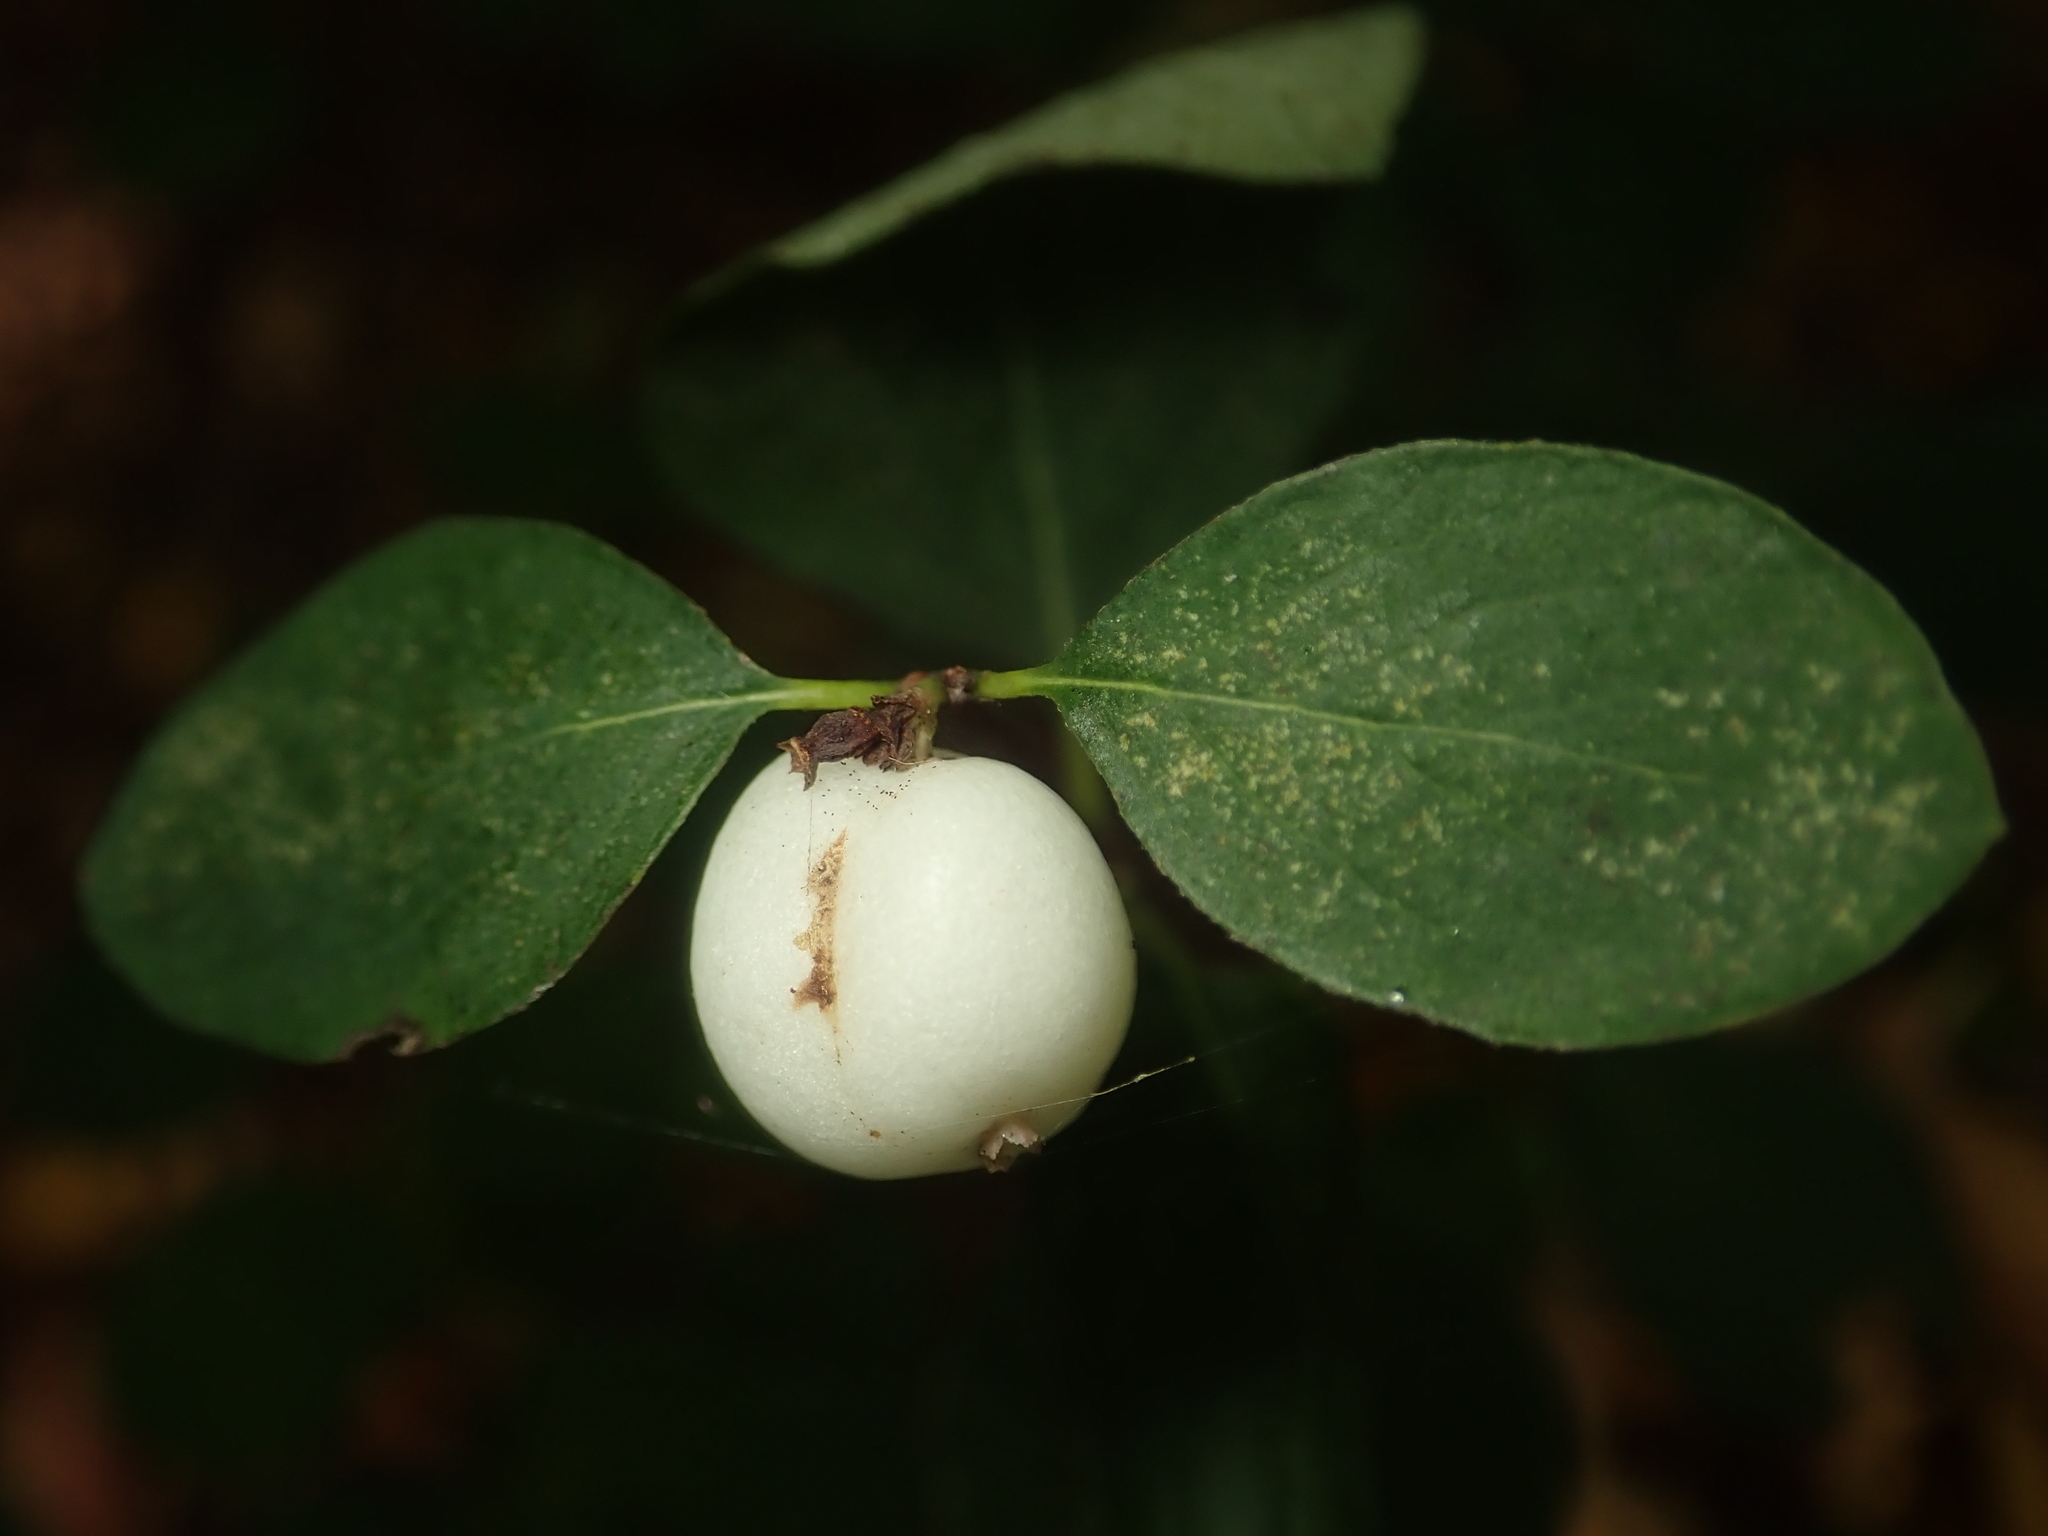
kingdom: Plantae
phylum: Tracheophyta
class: Magnoliopsida
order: Dipsacales
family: Caprifoliaceae
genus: Symphoricarpos
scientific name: Symphoricarpos albus
